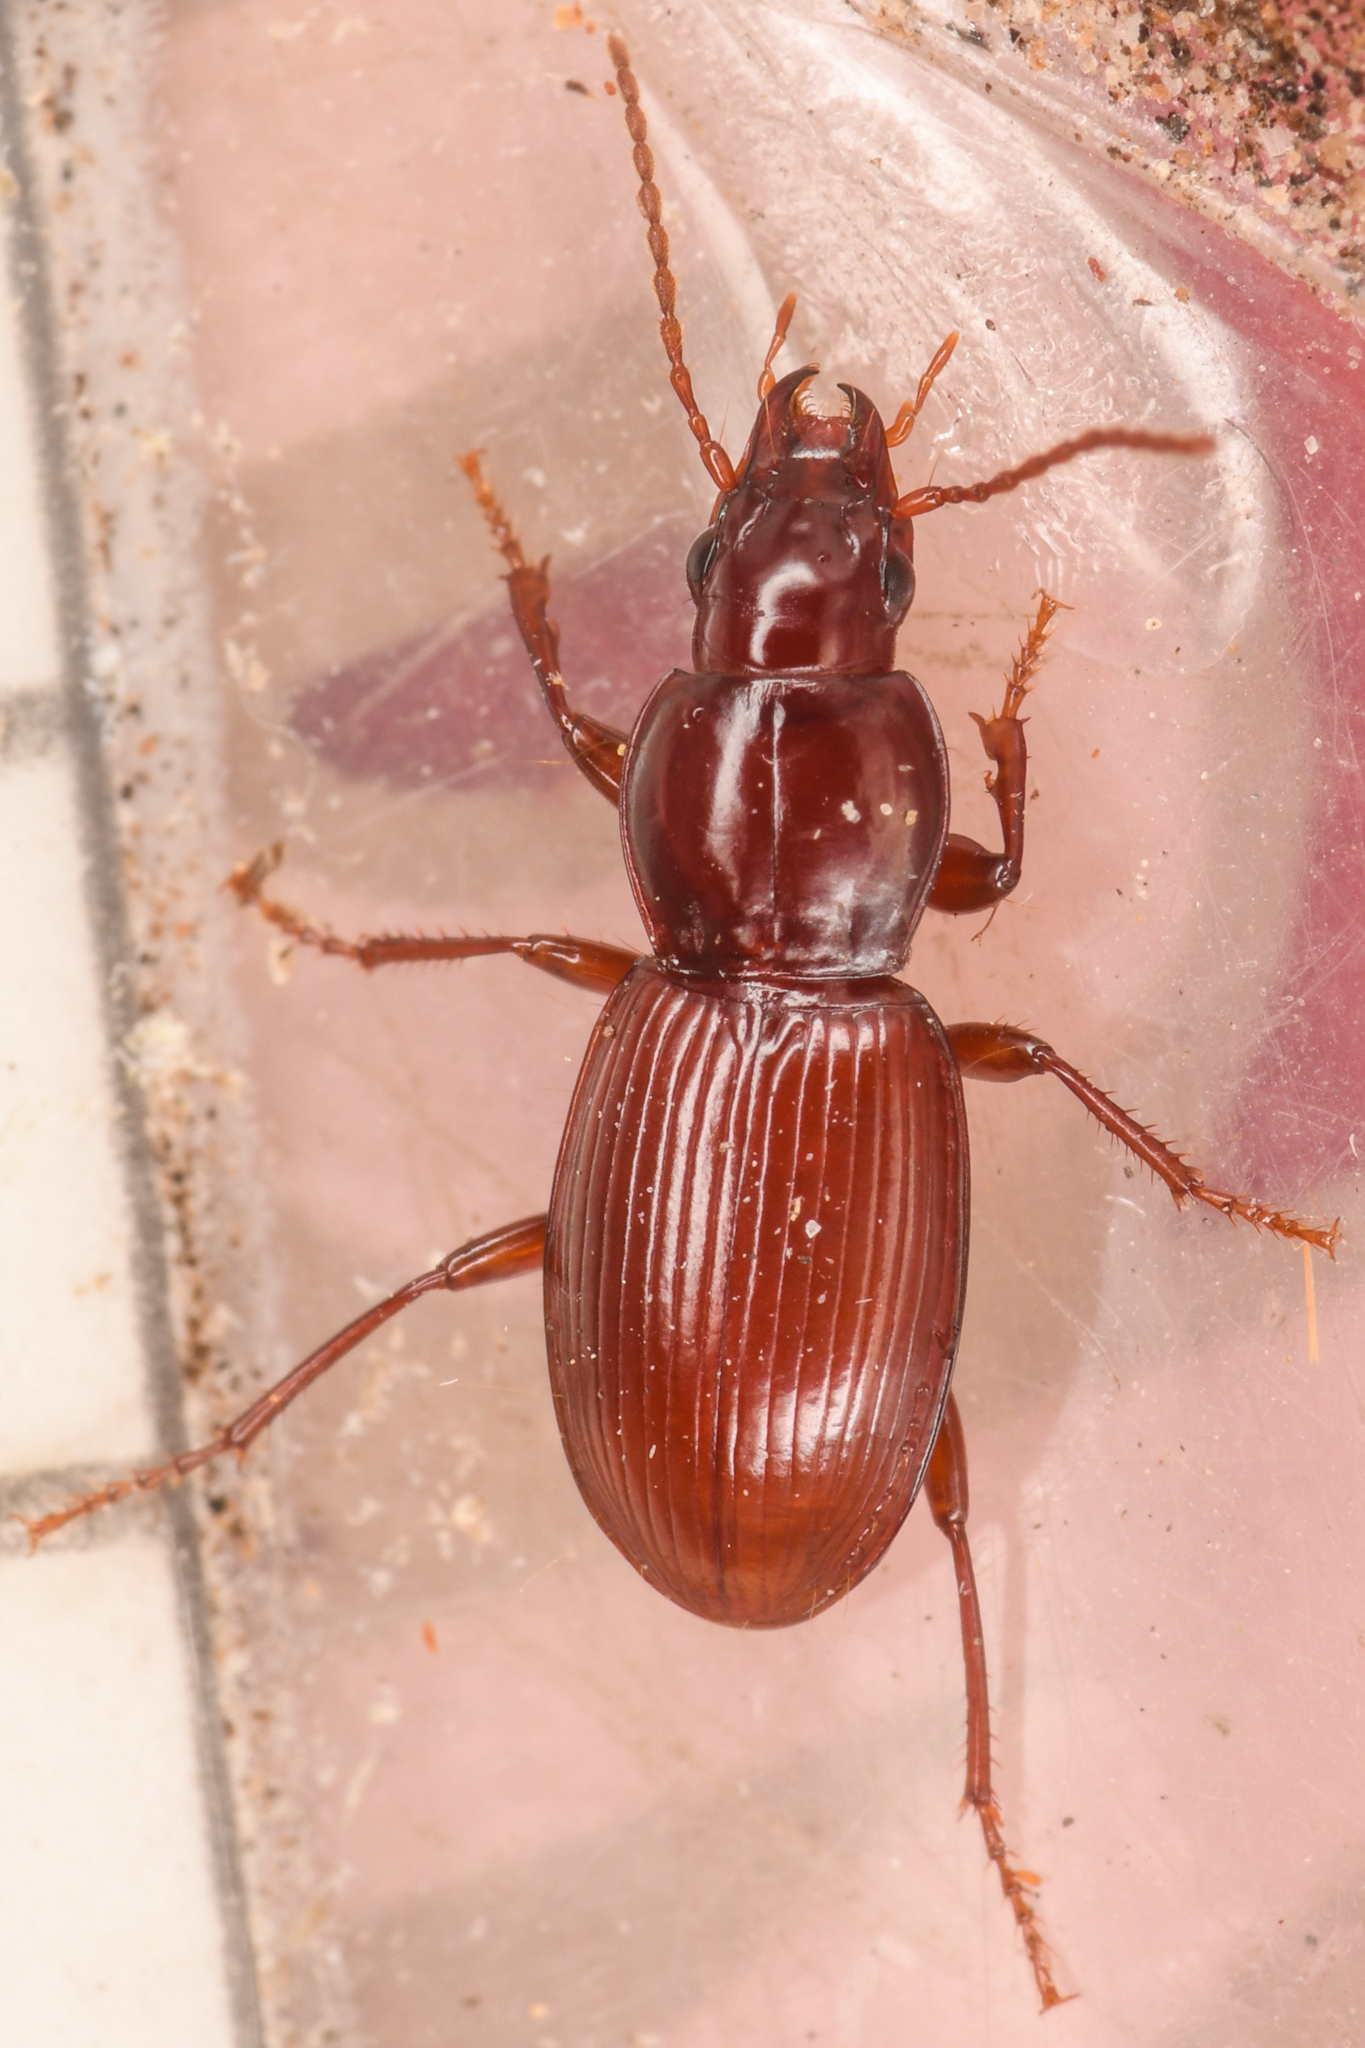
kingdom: Animalia
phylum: Arthropoda
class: Insecta
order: Coleoptera
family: Carabidae
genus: Pterostichus
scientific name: Pterostichus pumilus
